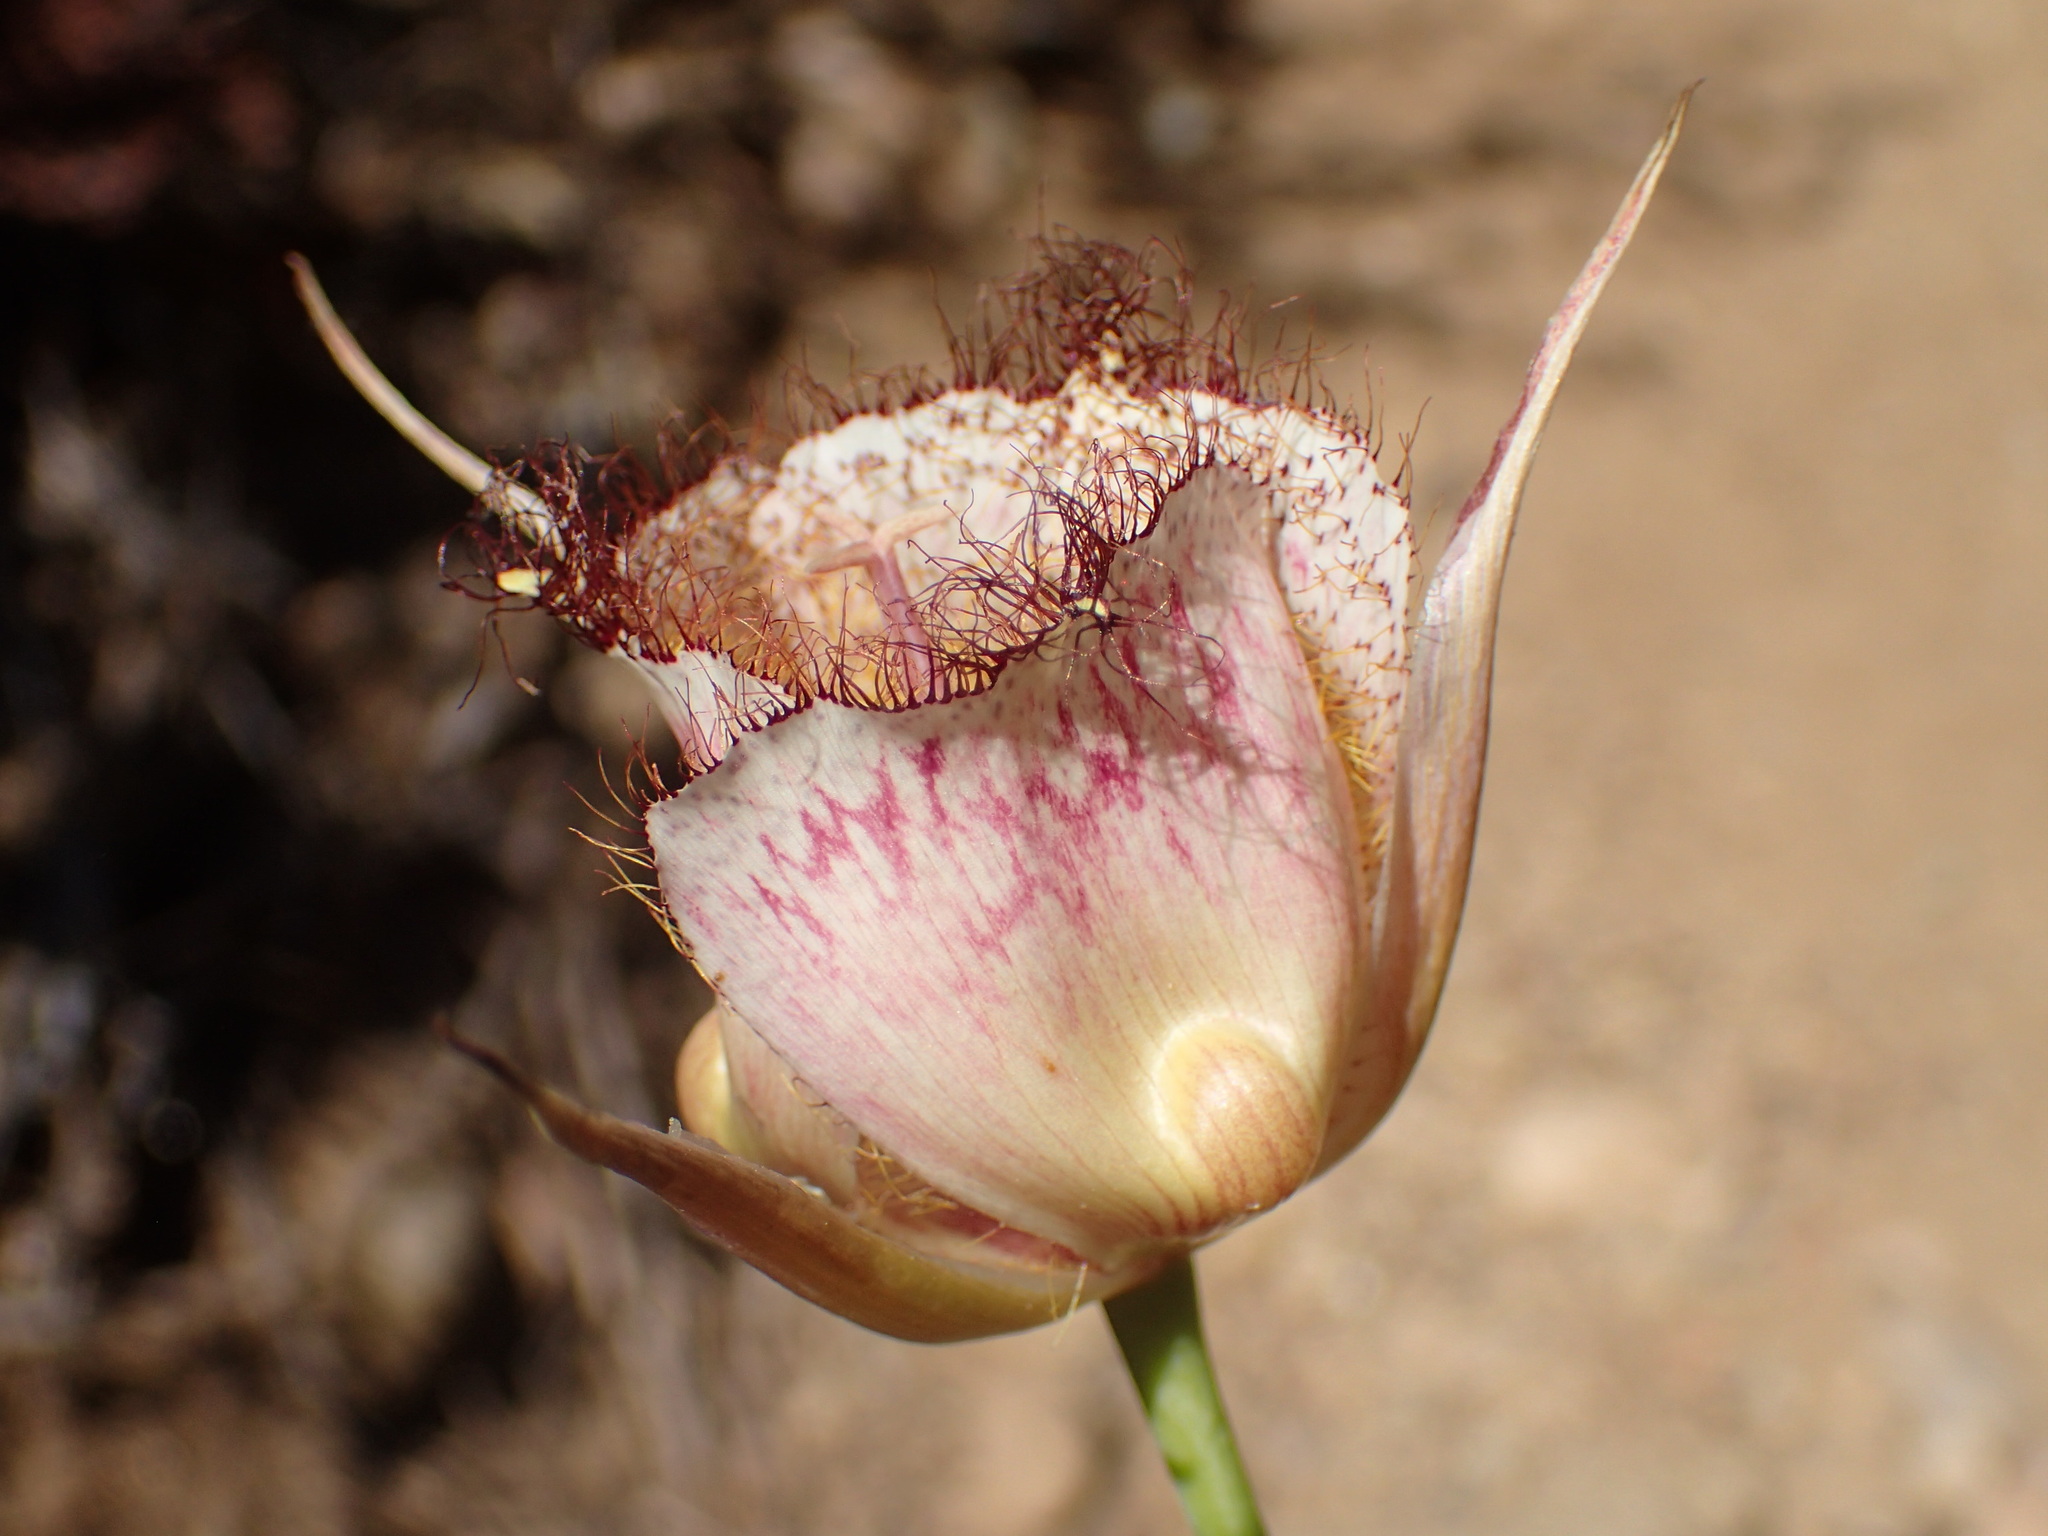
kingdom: Plantae
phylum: Tracheophyta
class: Liliopsida
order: Liliales
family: Liliaceae
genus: Calochortus
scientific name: Calochortus fimbriatus
